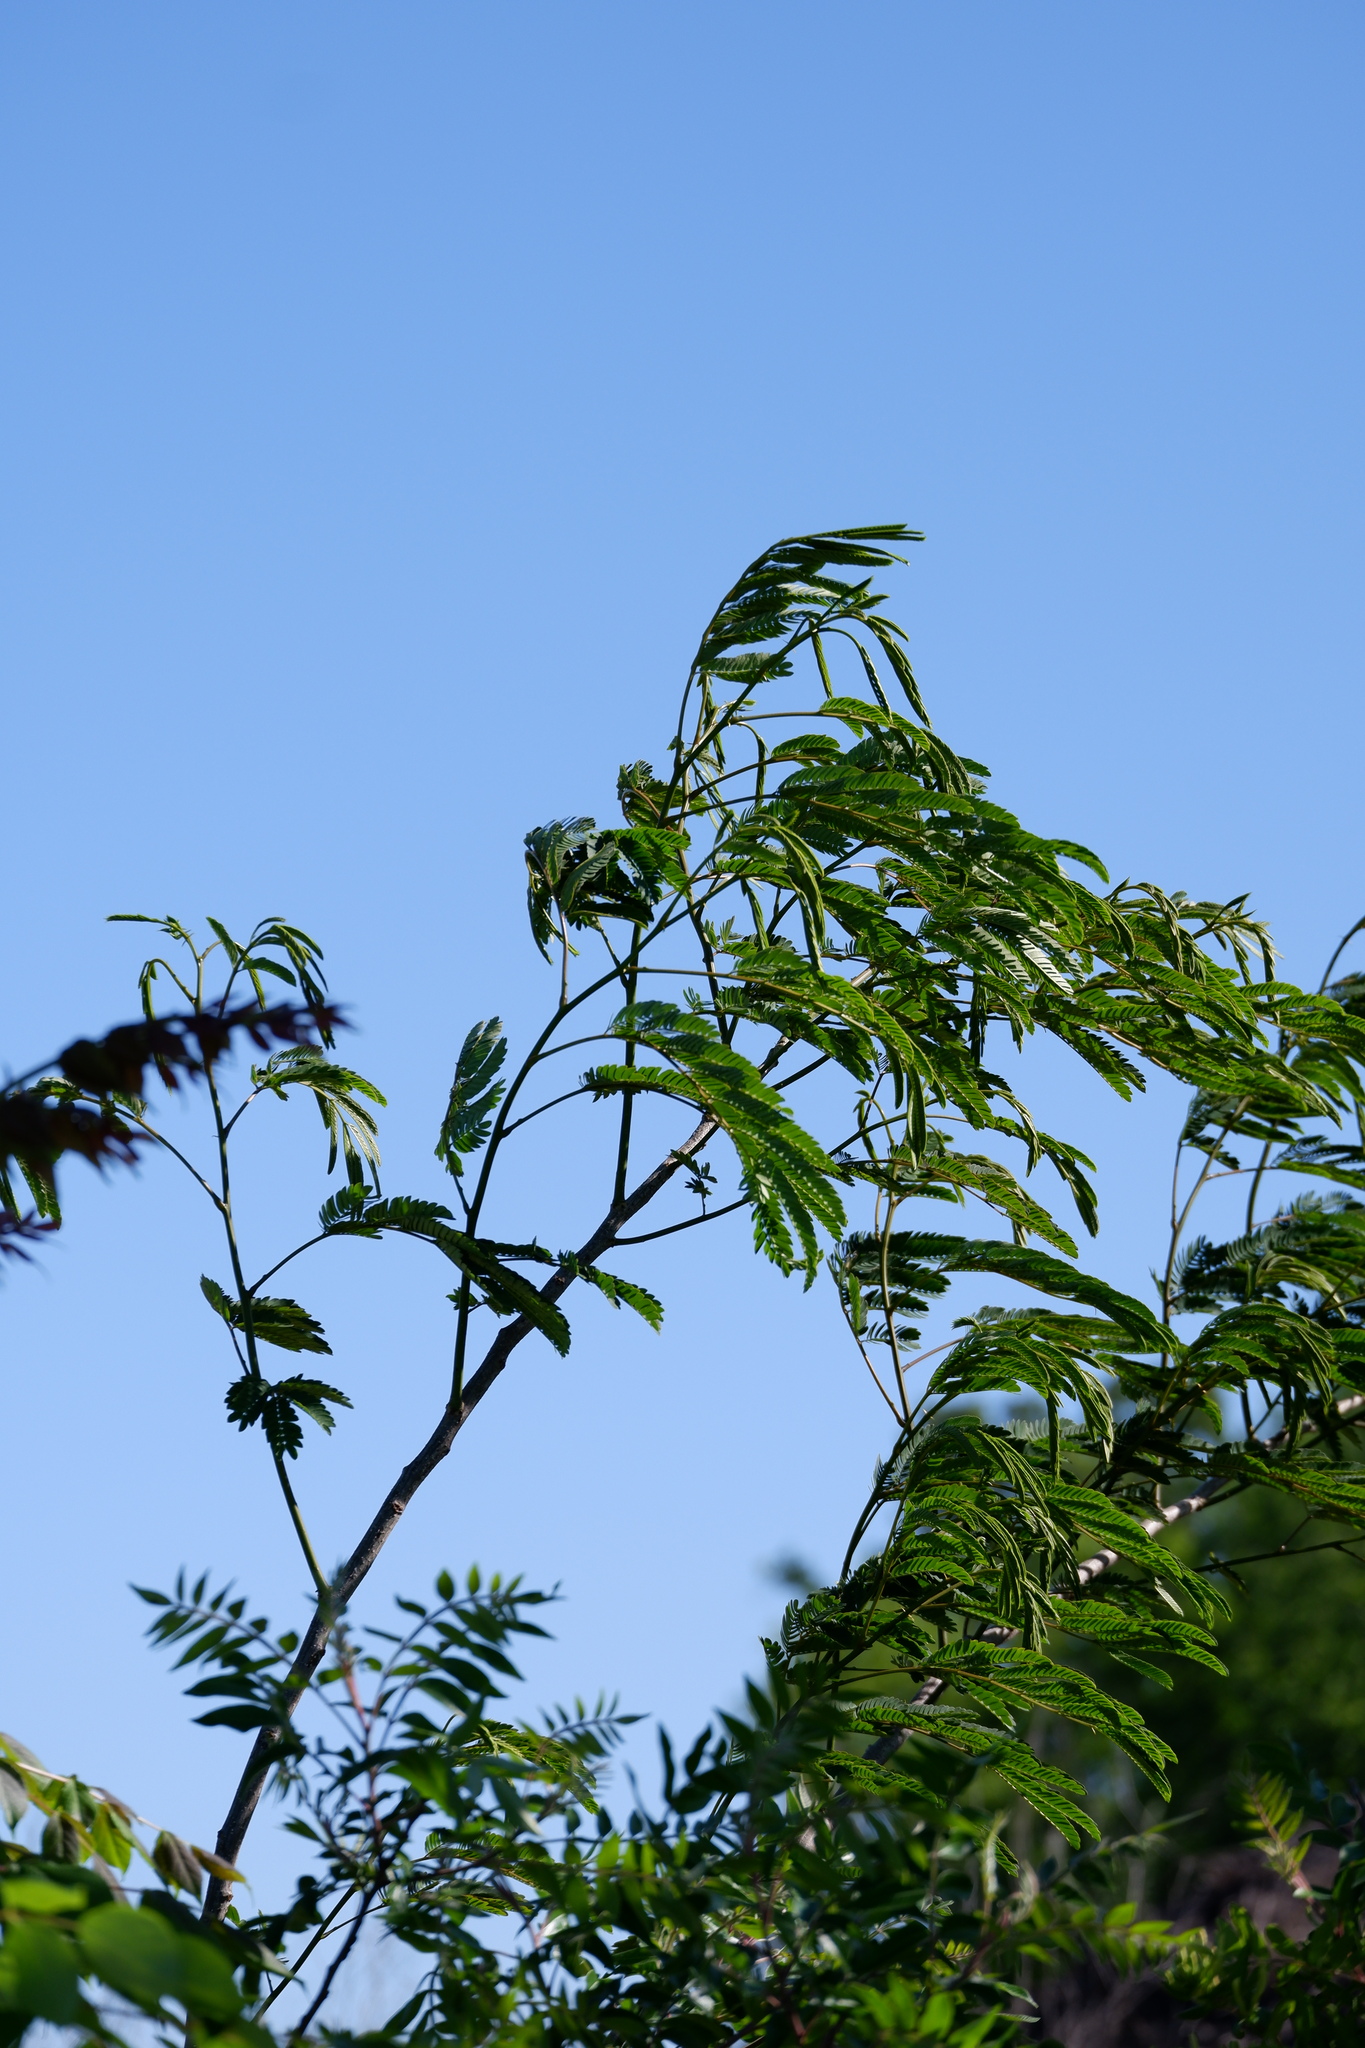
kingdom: Plantae
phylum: Tracheophyta
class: Magnoliopsida
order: Fabales
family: Fabaceae
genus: Albizia
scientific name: Albizia julibrissin
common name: Silktree
